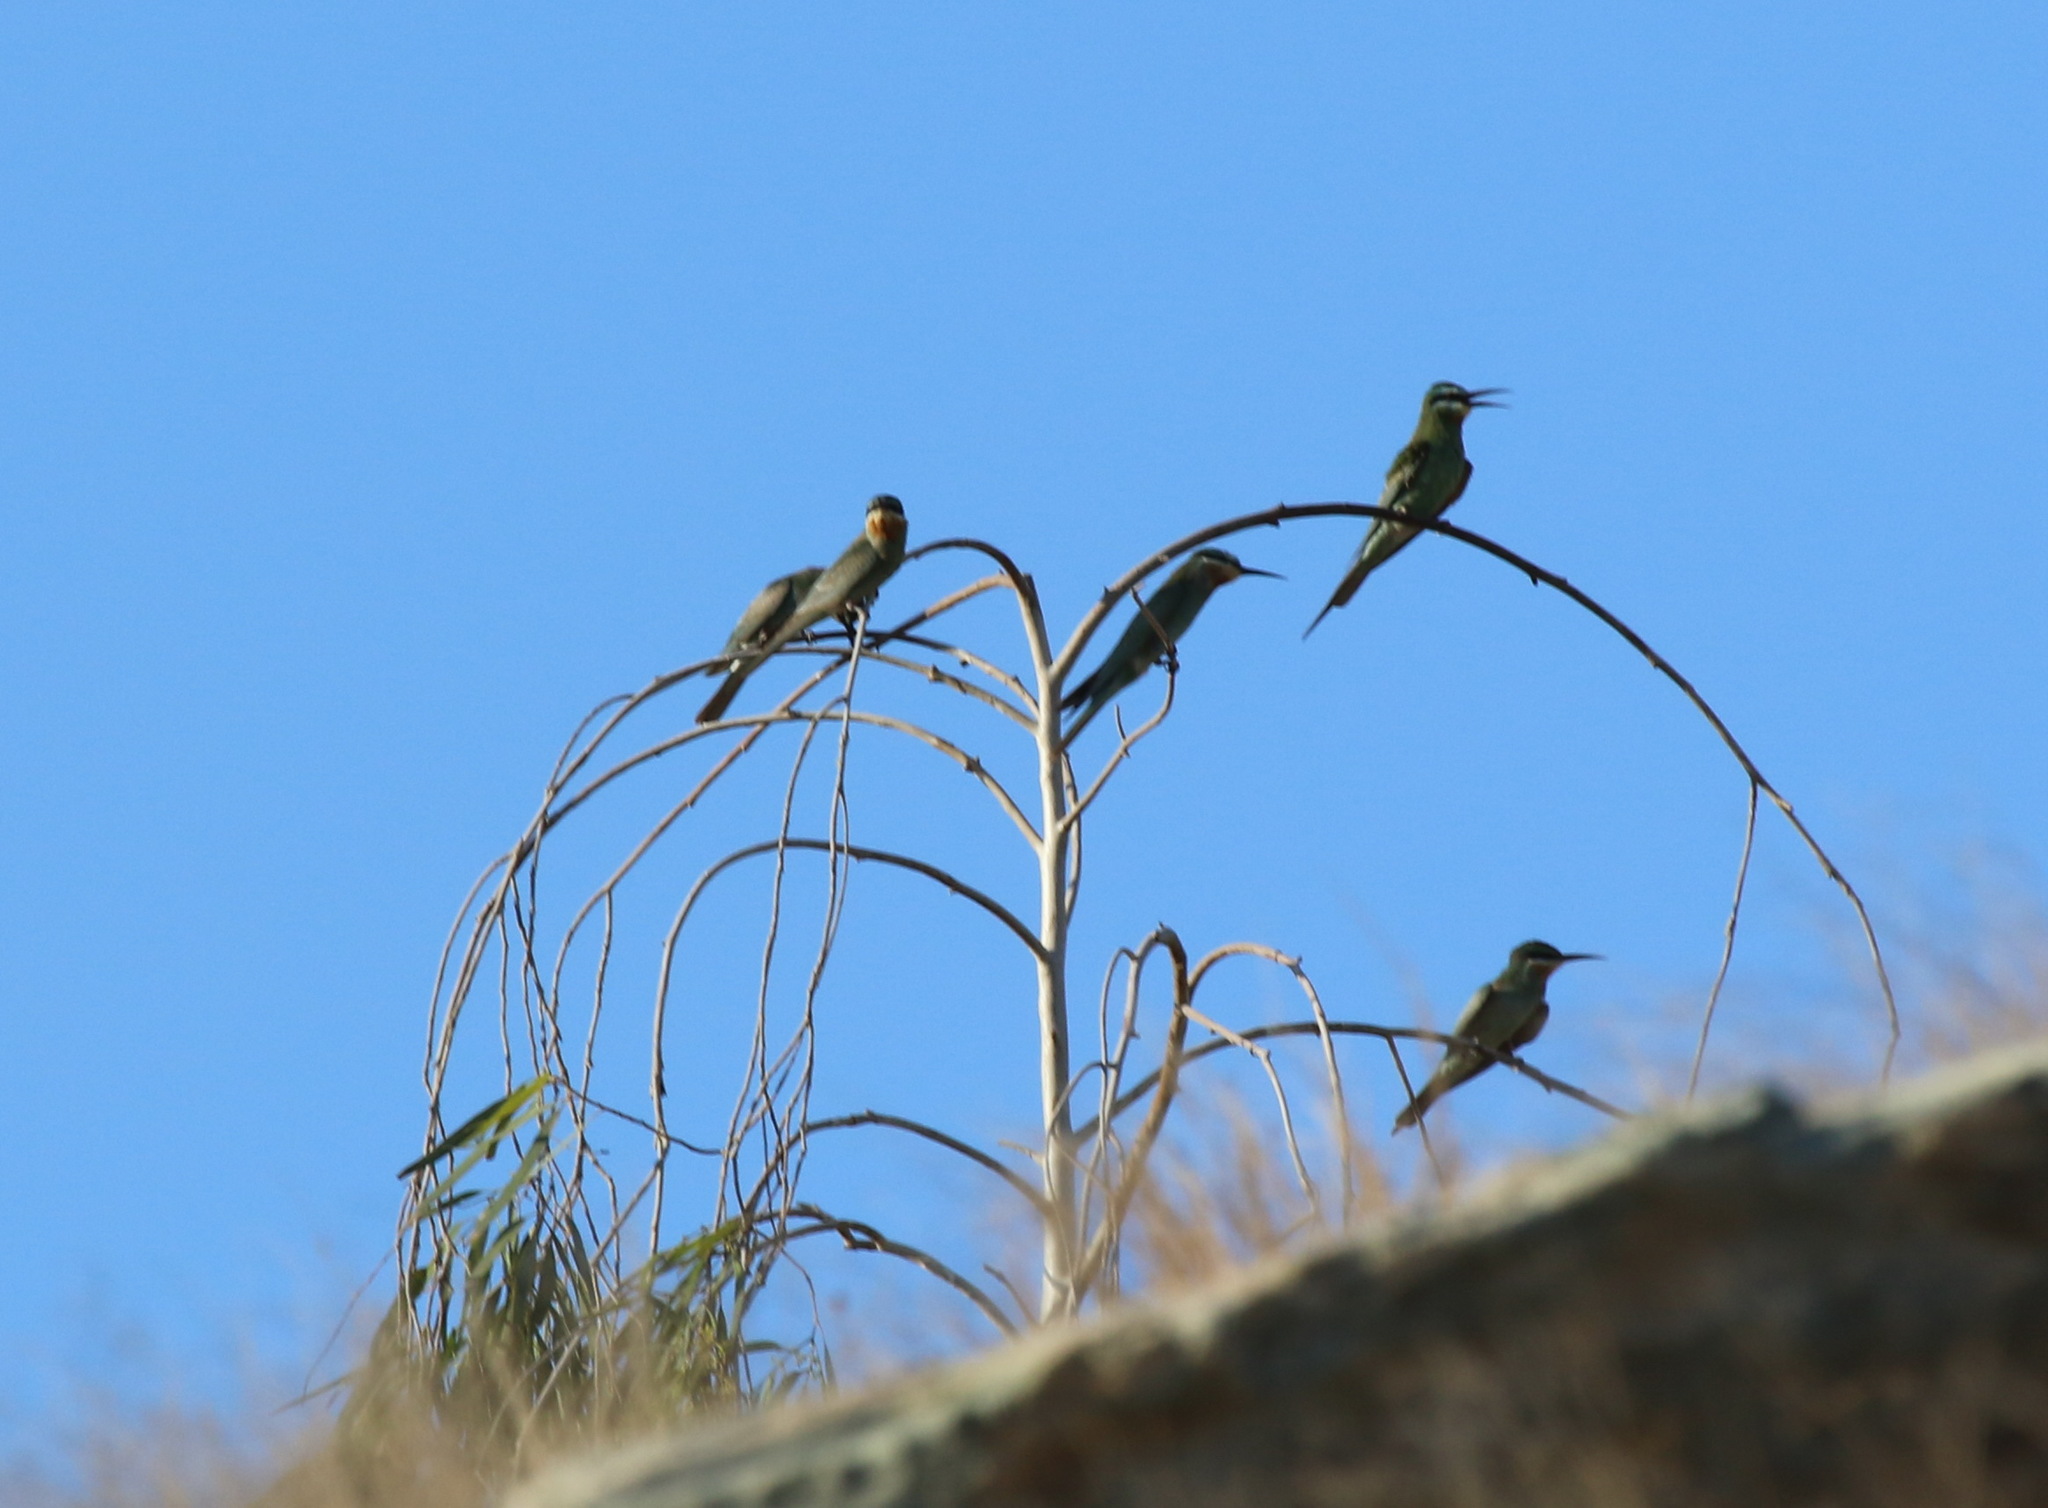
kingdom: Animalia
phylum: Chordata
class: Aves
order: Coraciiformes
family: Meropidae
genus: Merops
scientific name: Merops persicus
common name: Blue-cheeked bee-eater
